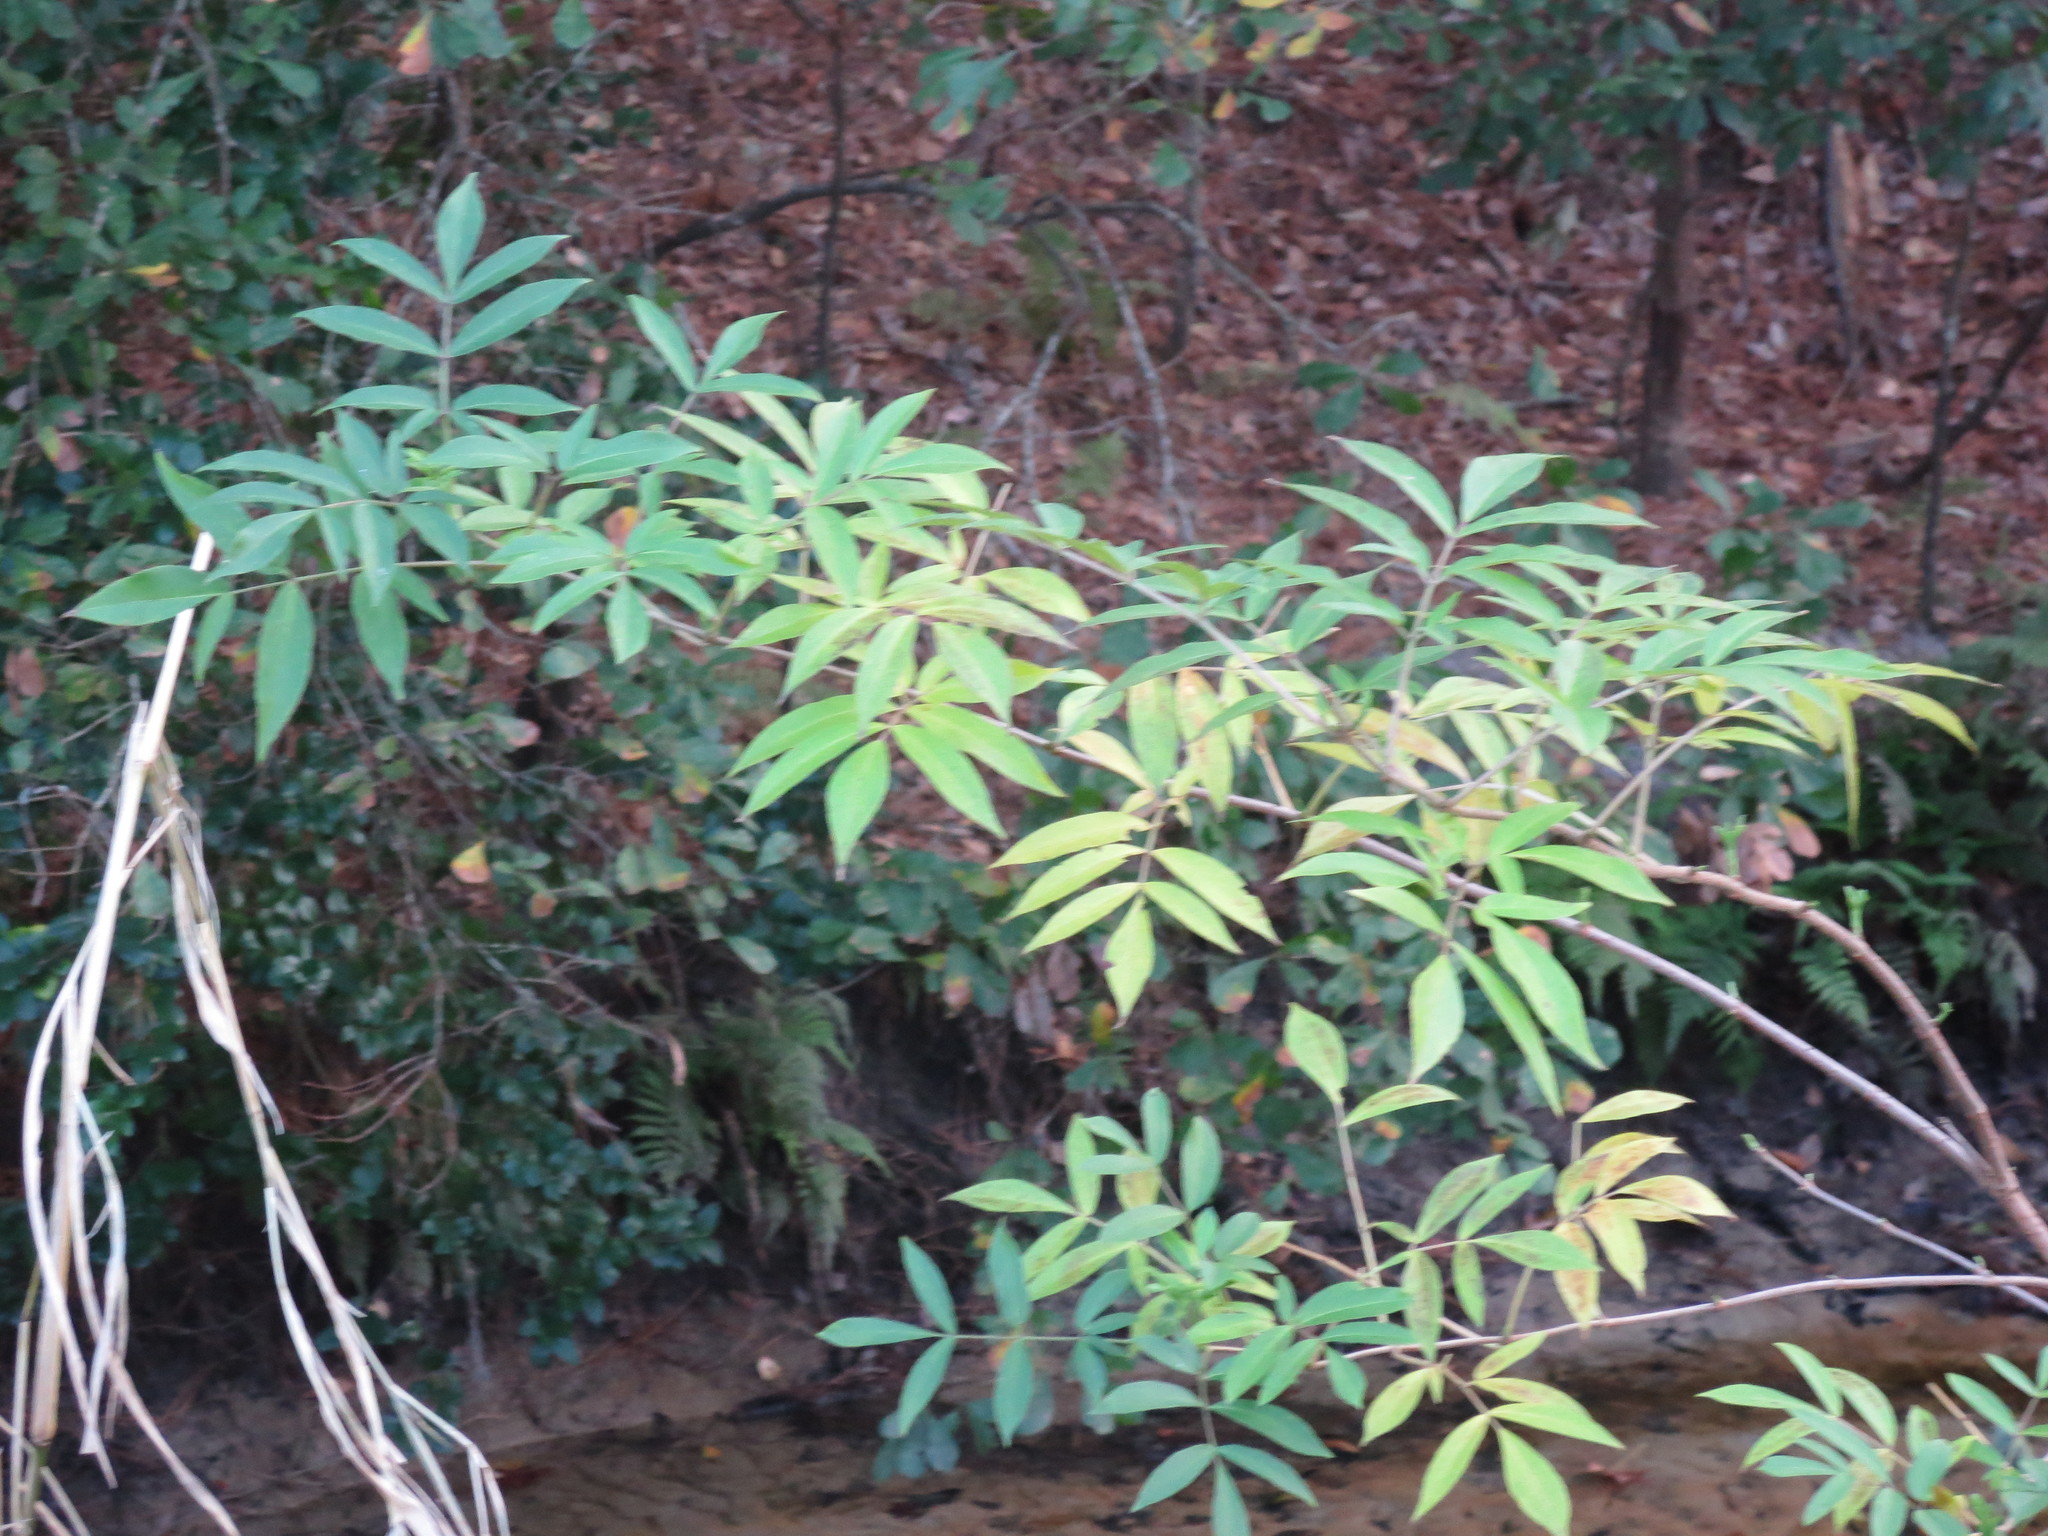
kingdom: Plantae
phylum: Tracheophyta
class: Magnoliopsida
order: Dipsacales
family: Viburnaceae
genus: Sambucus
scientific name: Sambucus canadensis
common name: American elder
